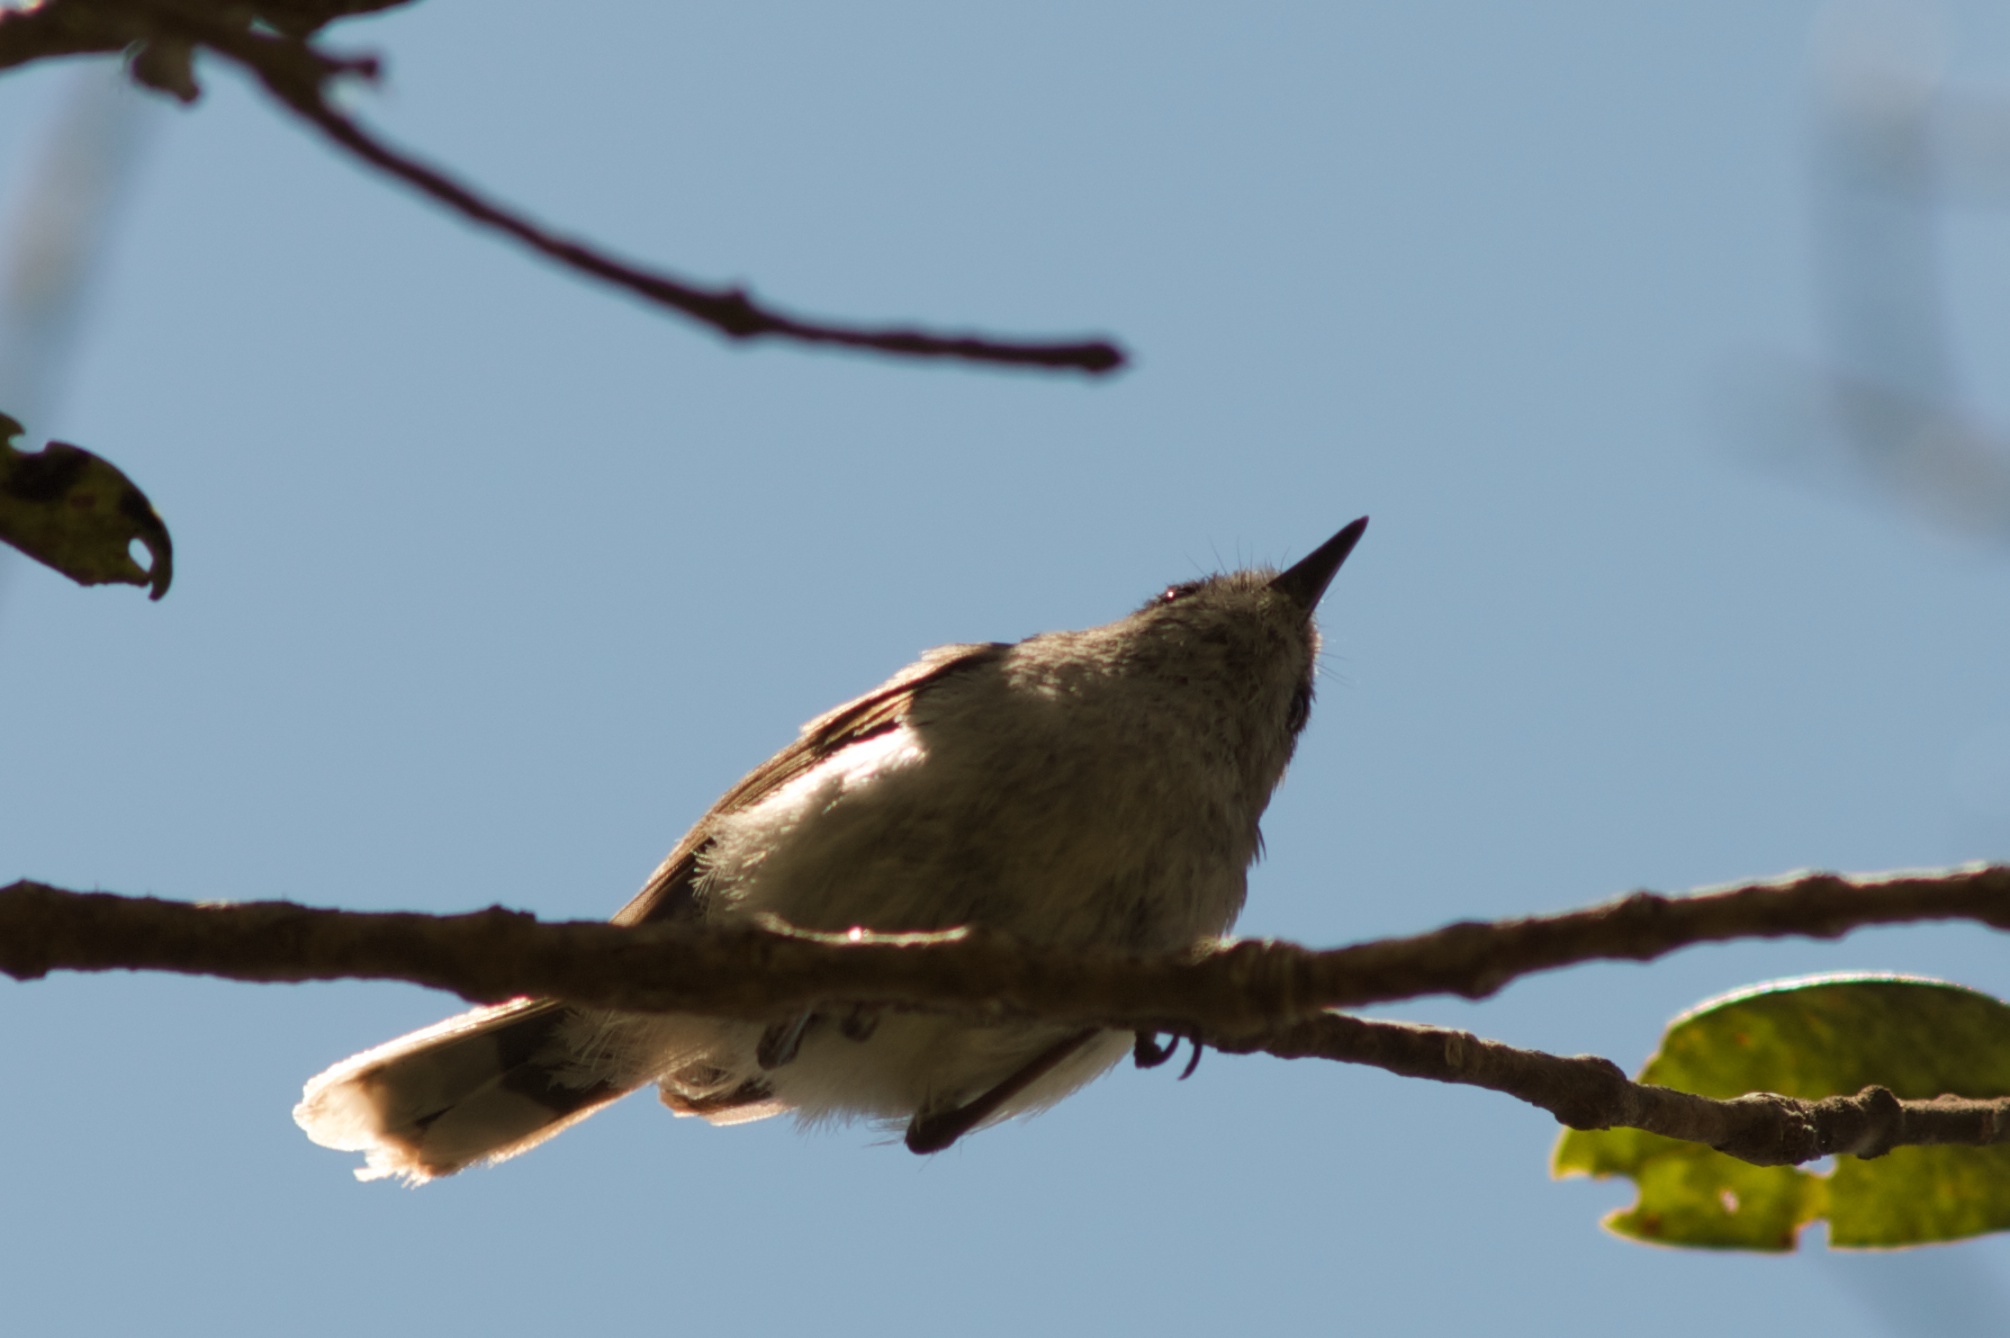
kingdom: Animalia
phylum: Chordata
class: Aves
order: Passeriformes
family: Acanthizidae
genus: Gerygone
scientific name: Gerygone igata
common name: Grey gerygone
